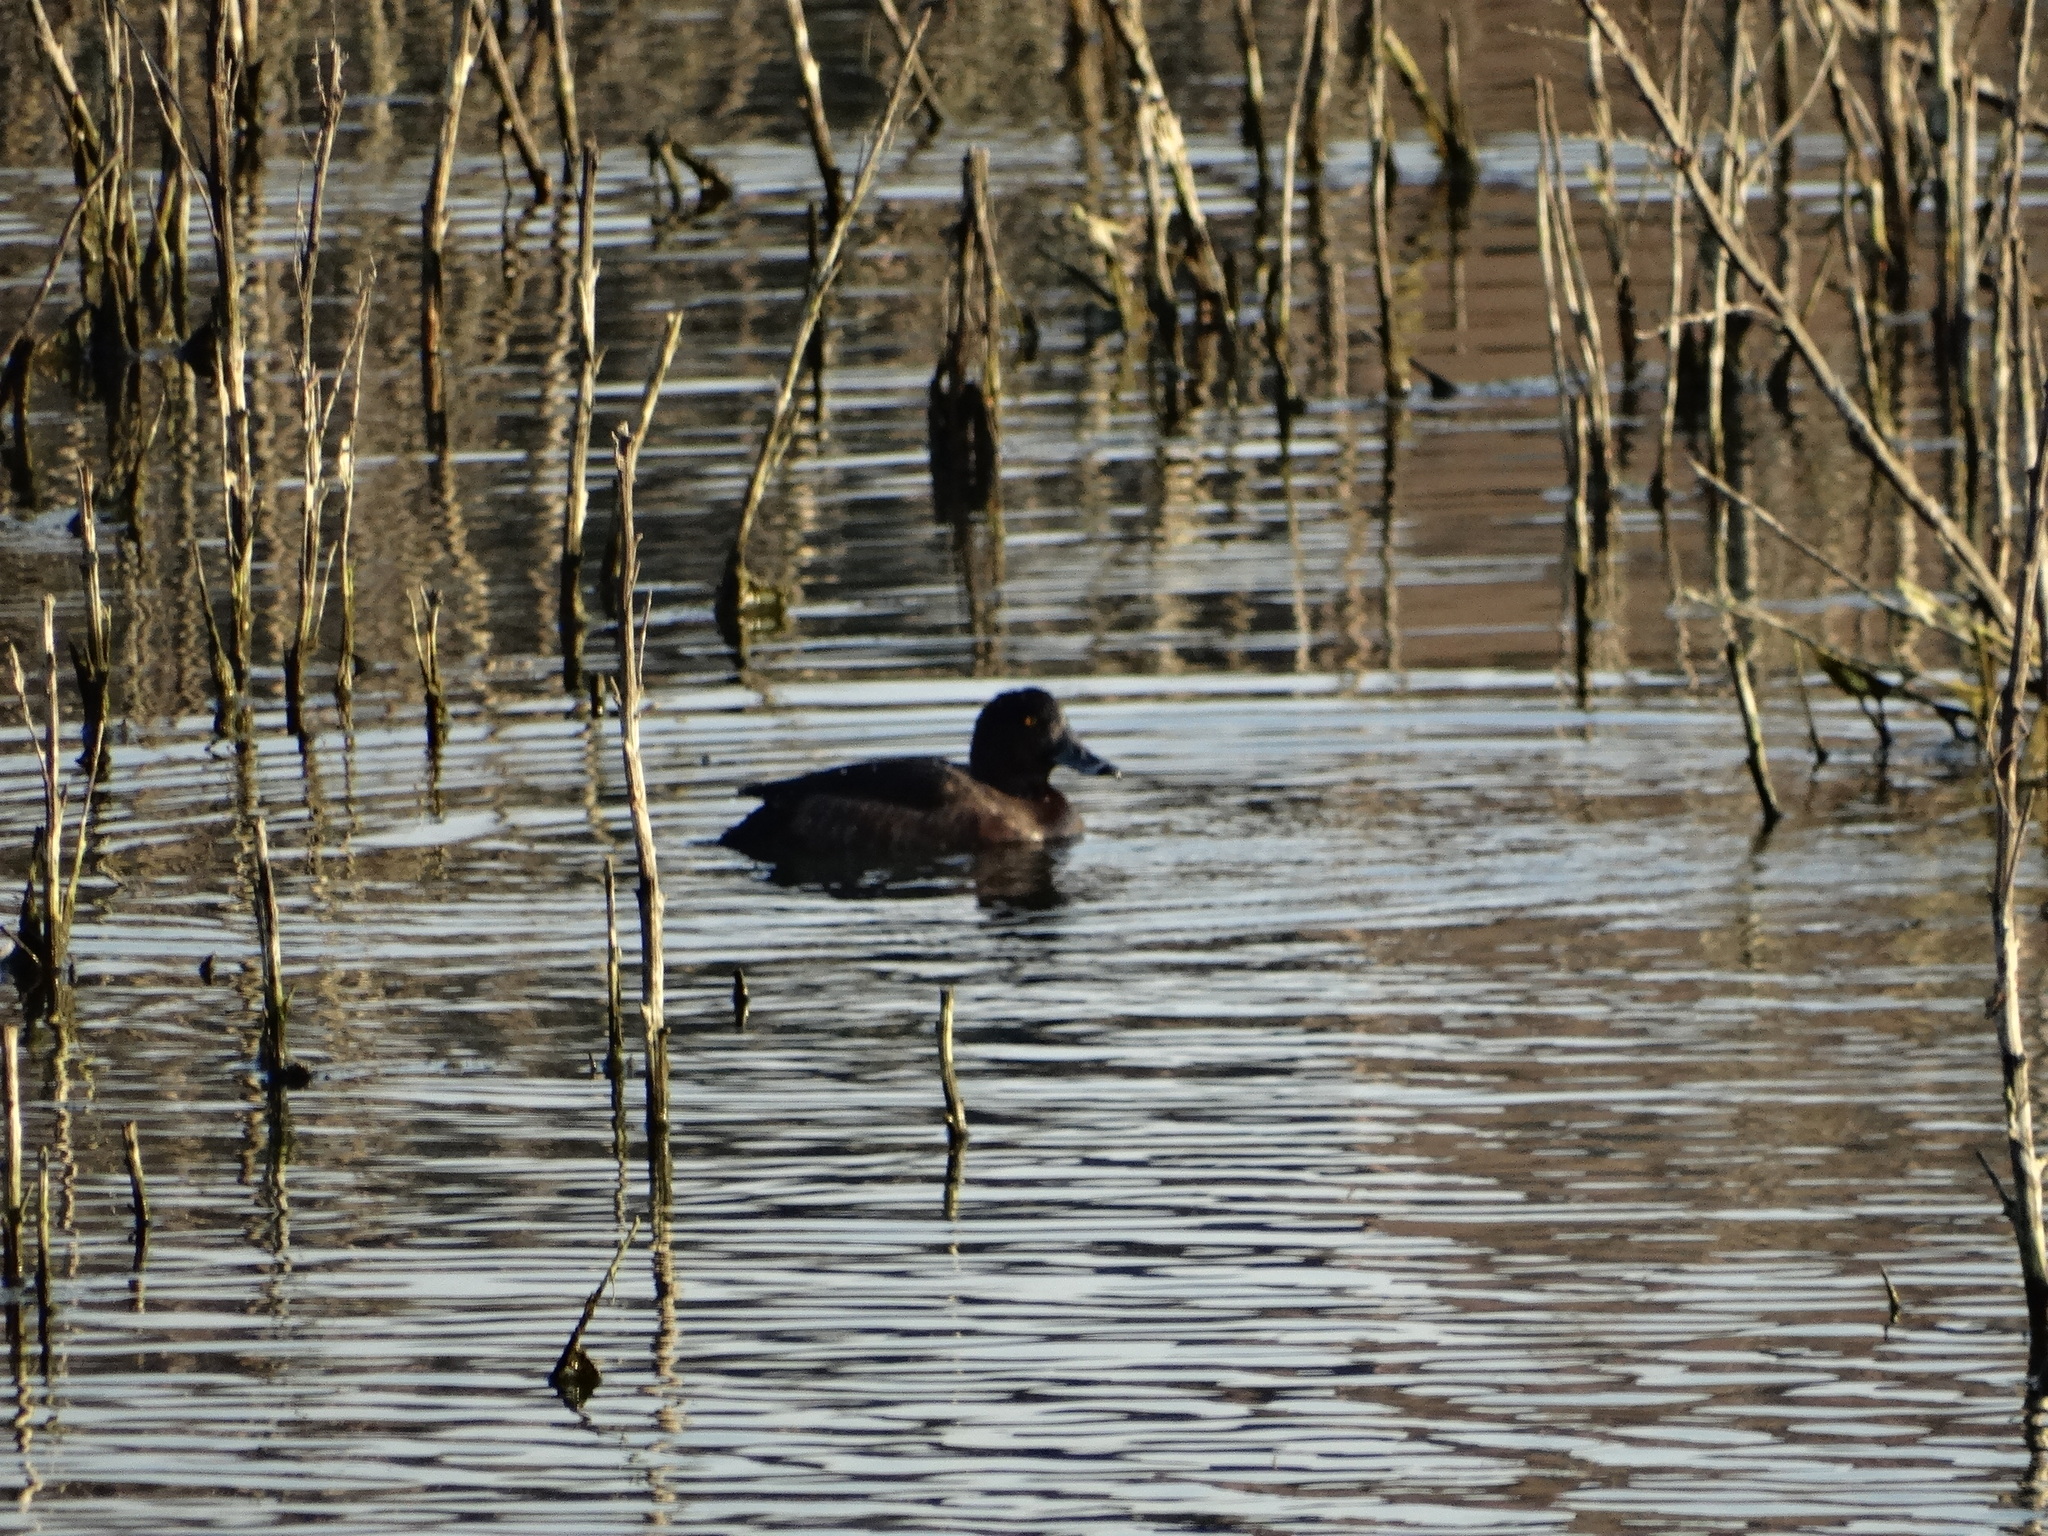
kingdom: Animalia
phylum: Chordata
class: Aves
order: Anseriformes
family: Anatidae
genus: Aythya
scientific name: Aythya fuligula
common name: Tufted duck
